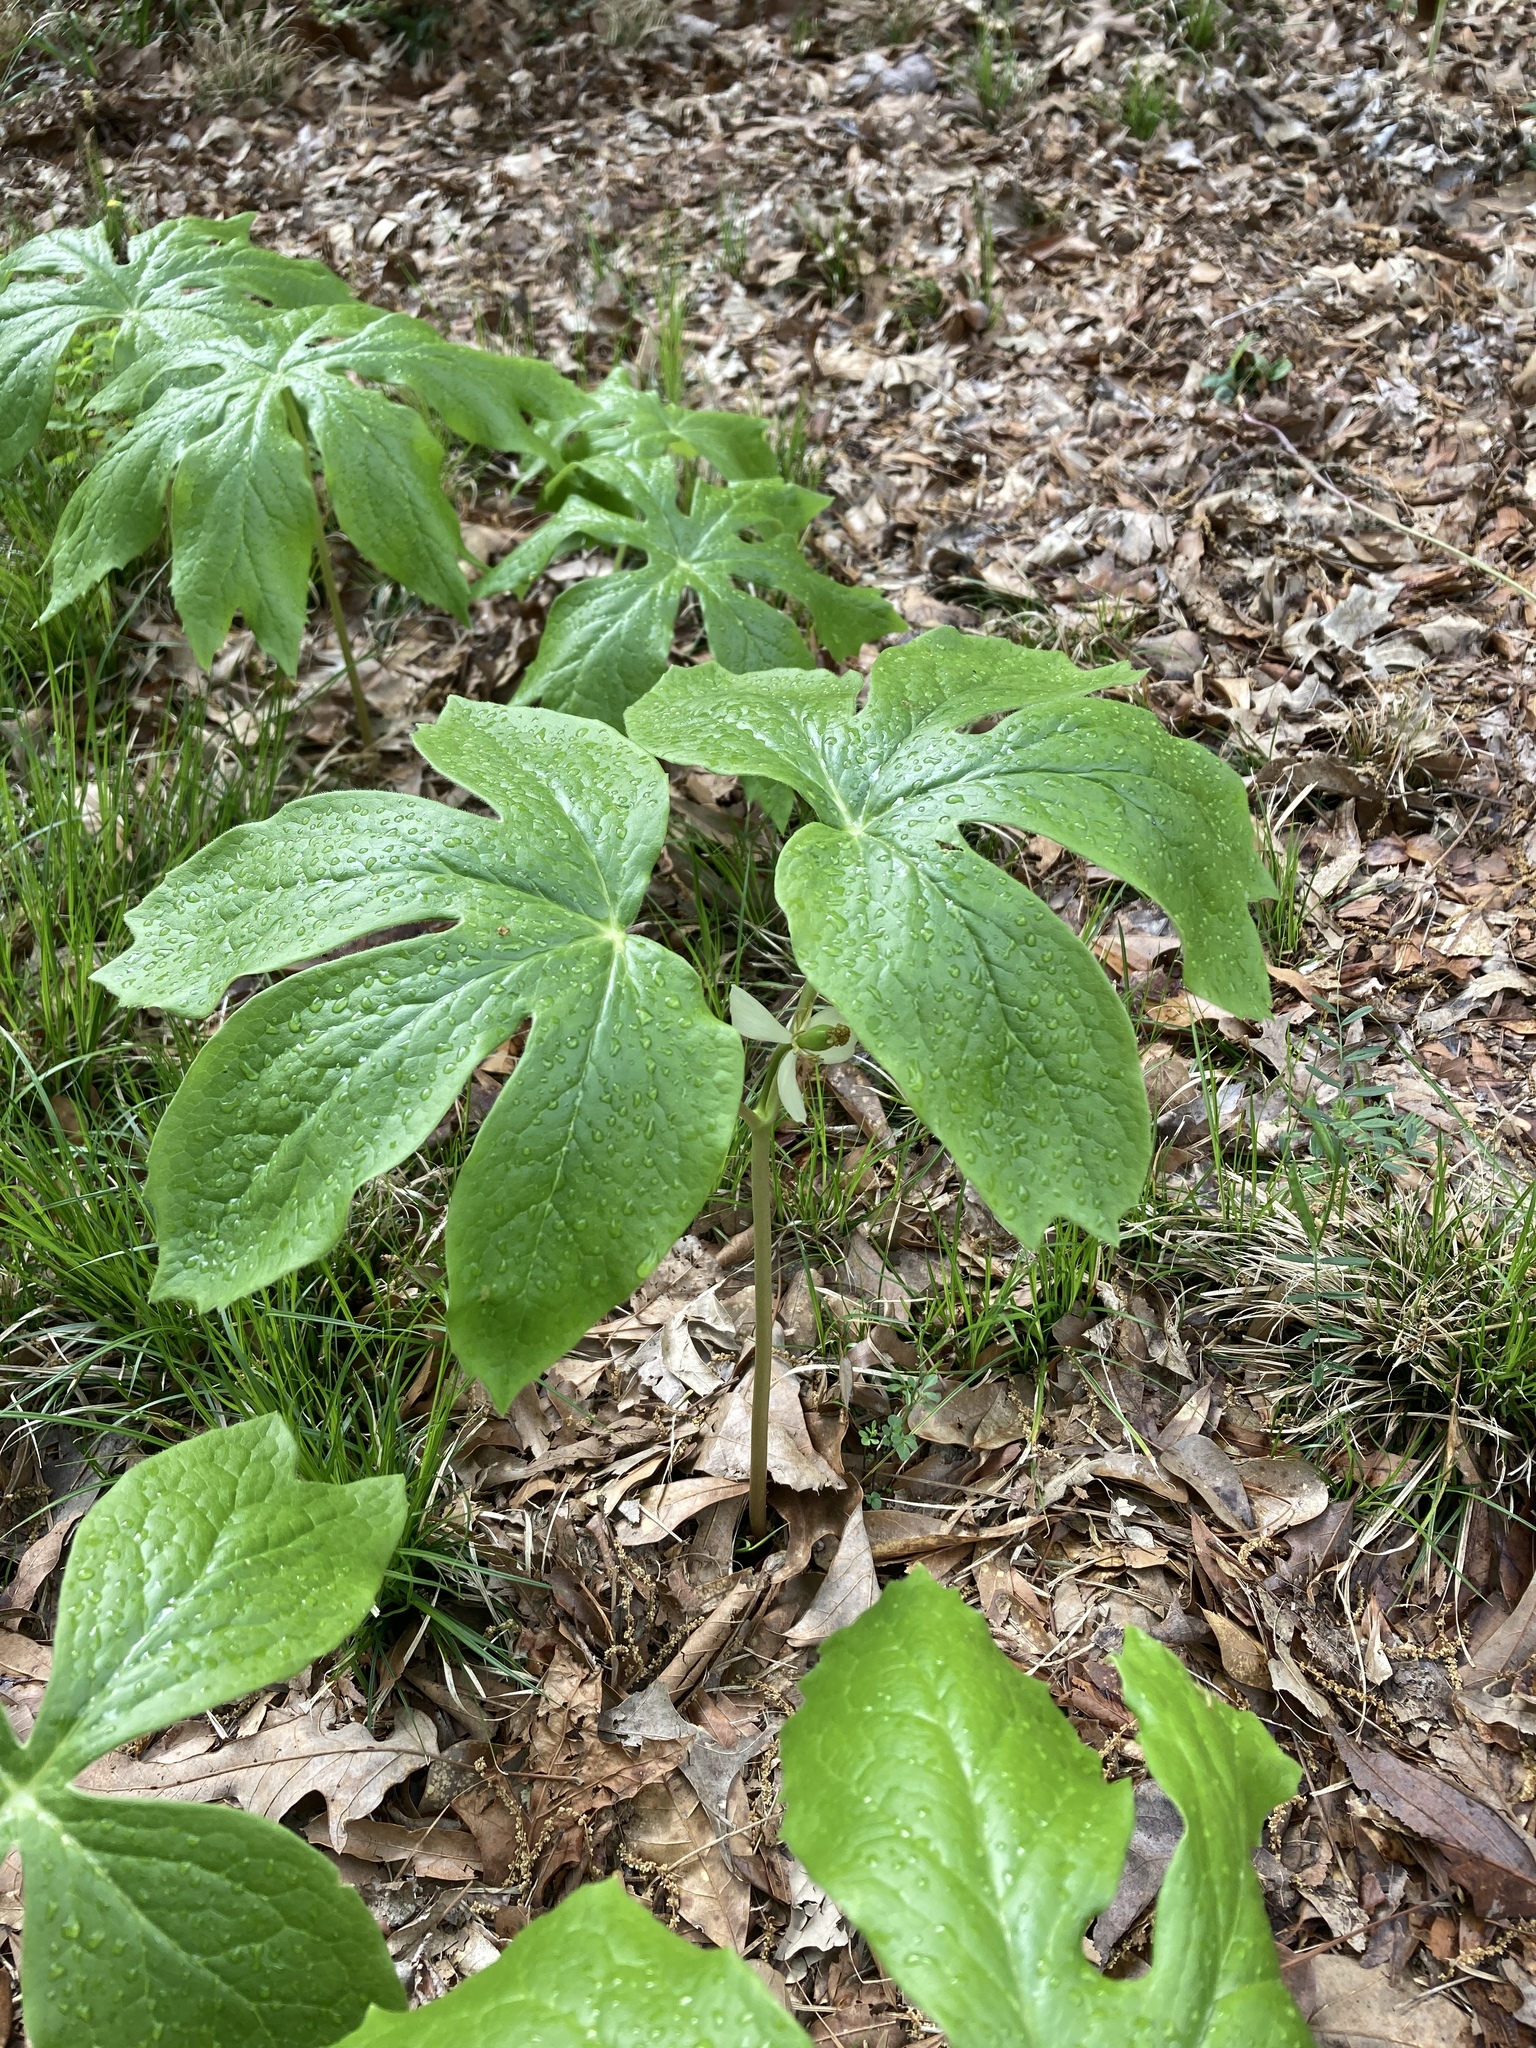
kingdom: Plantae
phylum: Tracheophyta
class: Magnoliopsida
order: Ranunculales
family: Berberidaceae
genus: Podophyllum
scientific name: Podophyllum peltatum
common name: Wild mandrake
